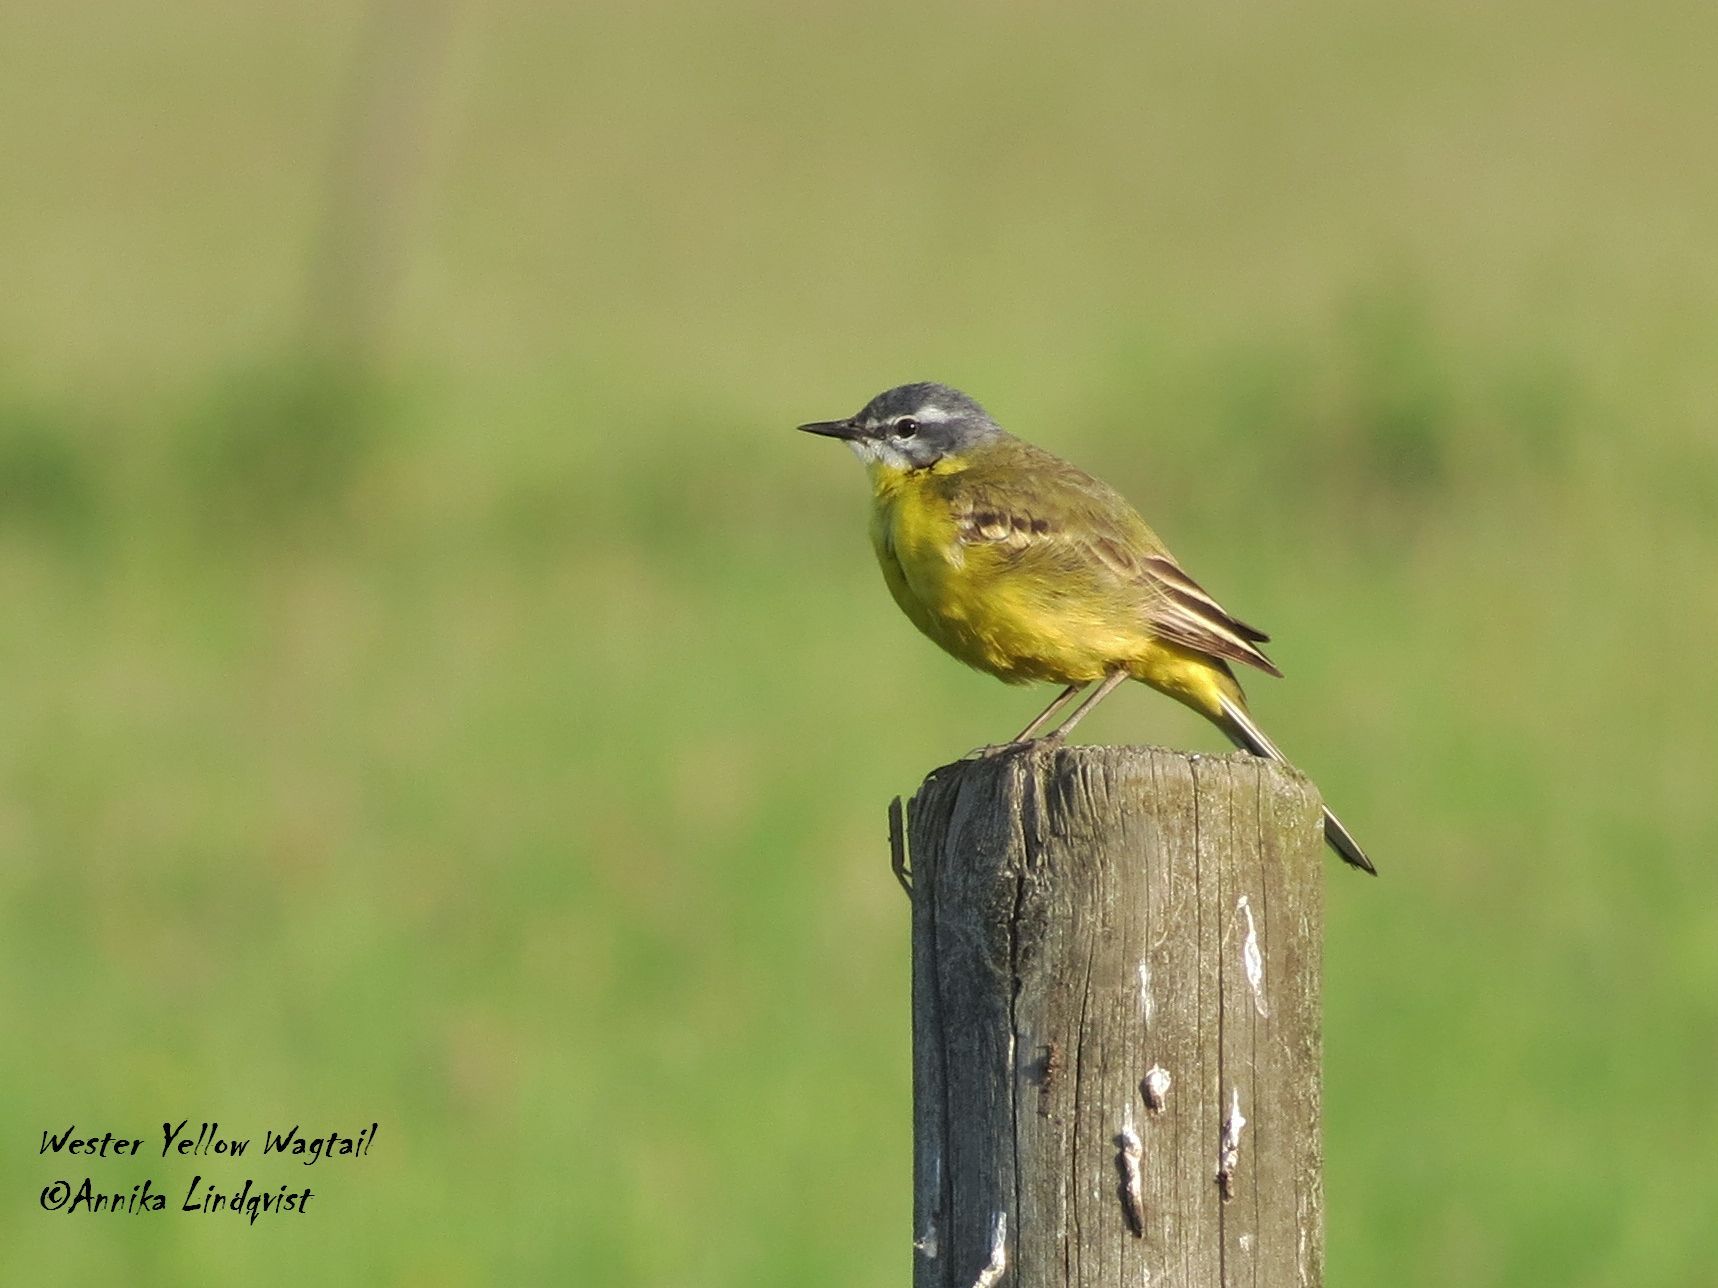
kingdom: Animalia
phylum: Chordata
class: Aves
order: Passeriformes
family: Motacillidae
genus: Motacilla
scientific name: Motacilla flava
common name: Western yellow wagtail
